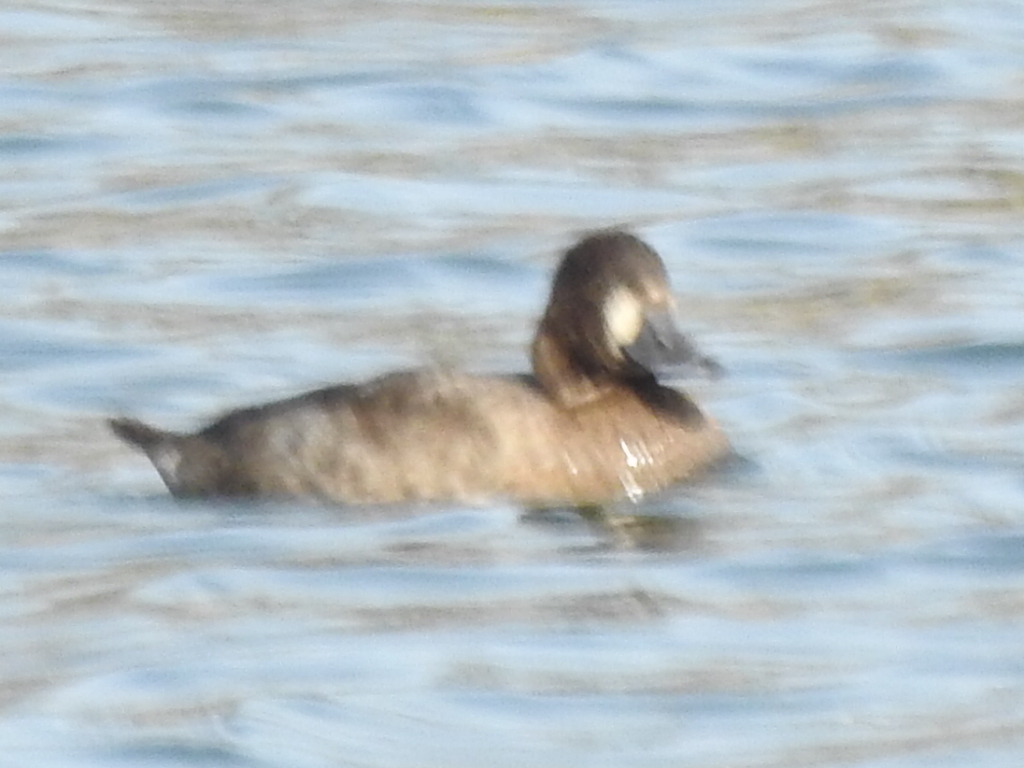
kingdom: Animalia
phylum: Chordata
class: Aves
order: Anseriformes
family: Anatidae
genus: Aythya
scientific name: Aythya affinis
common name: Lesser scaup
